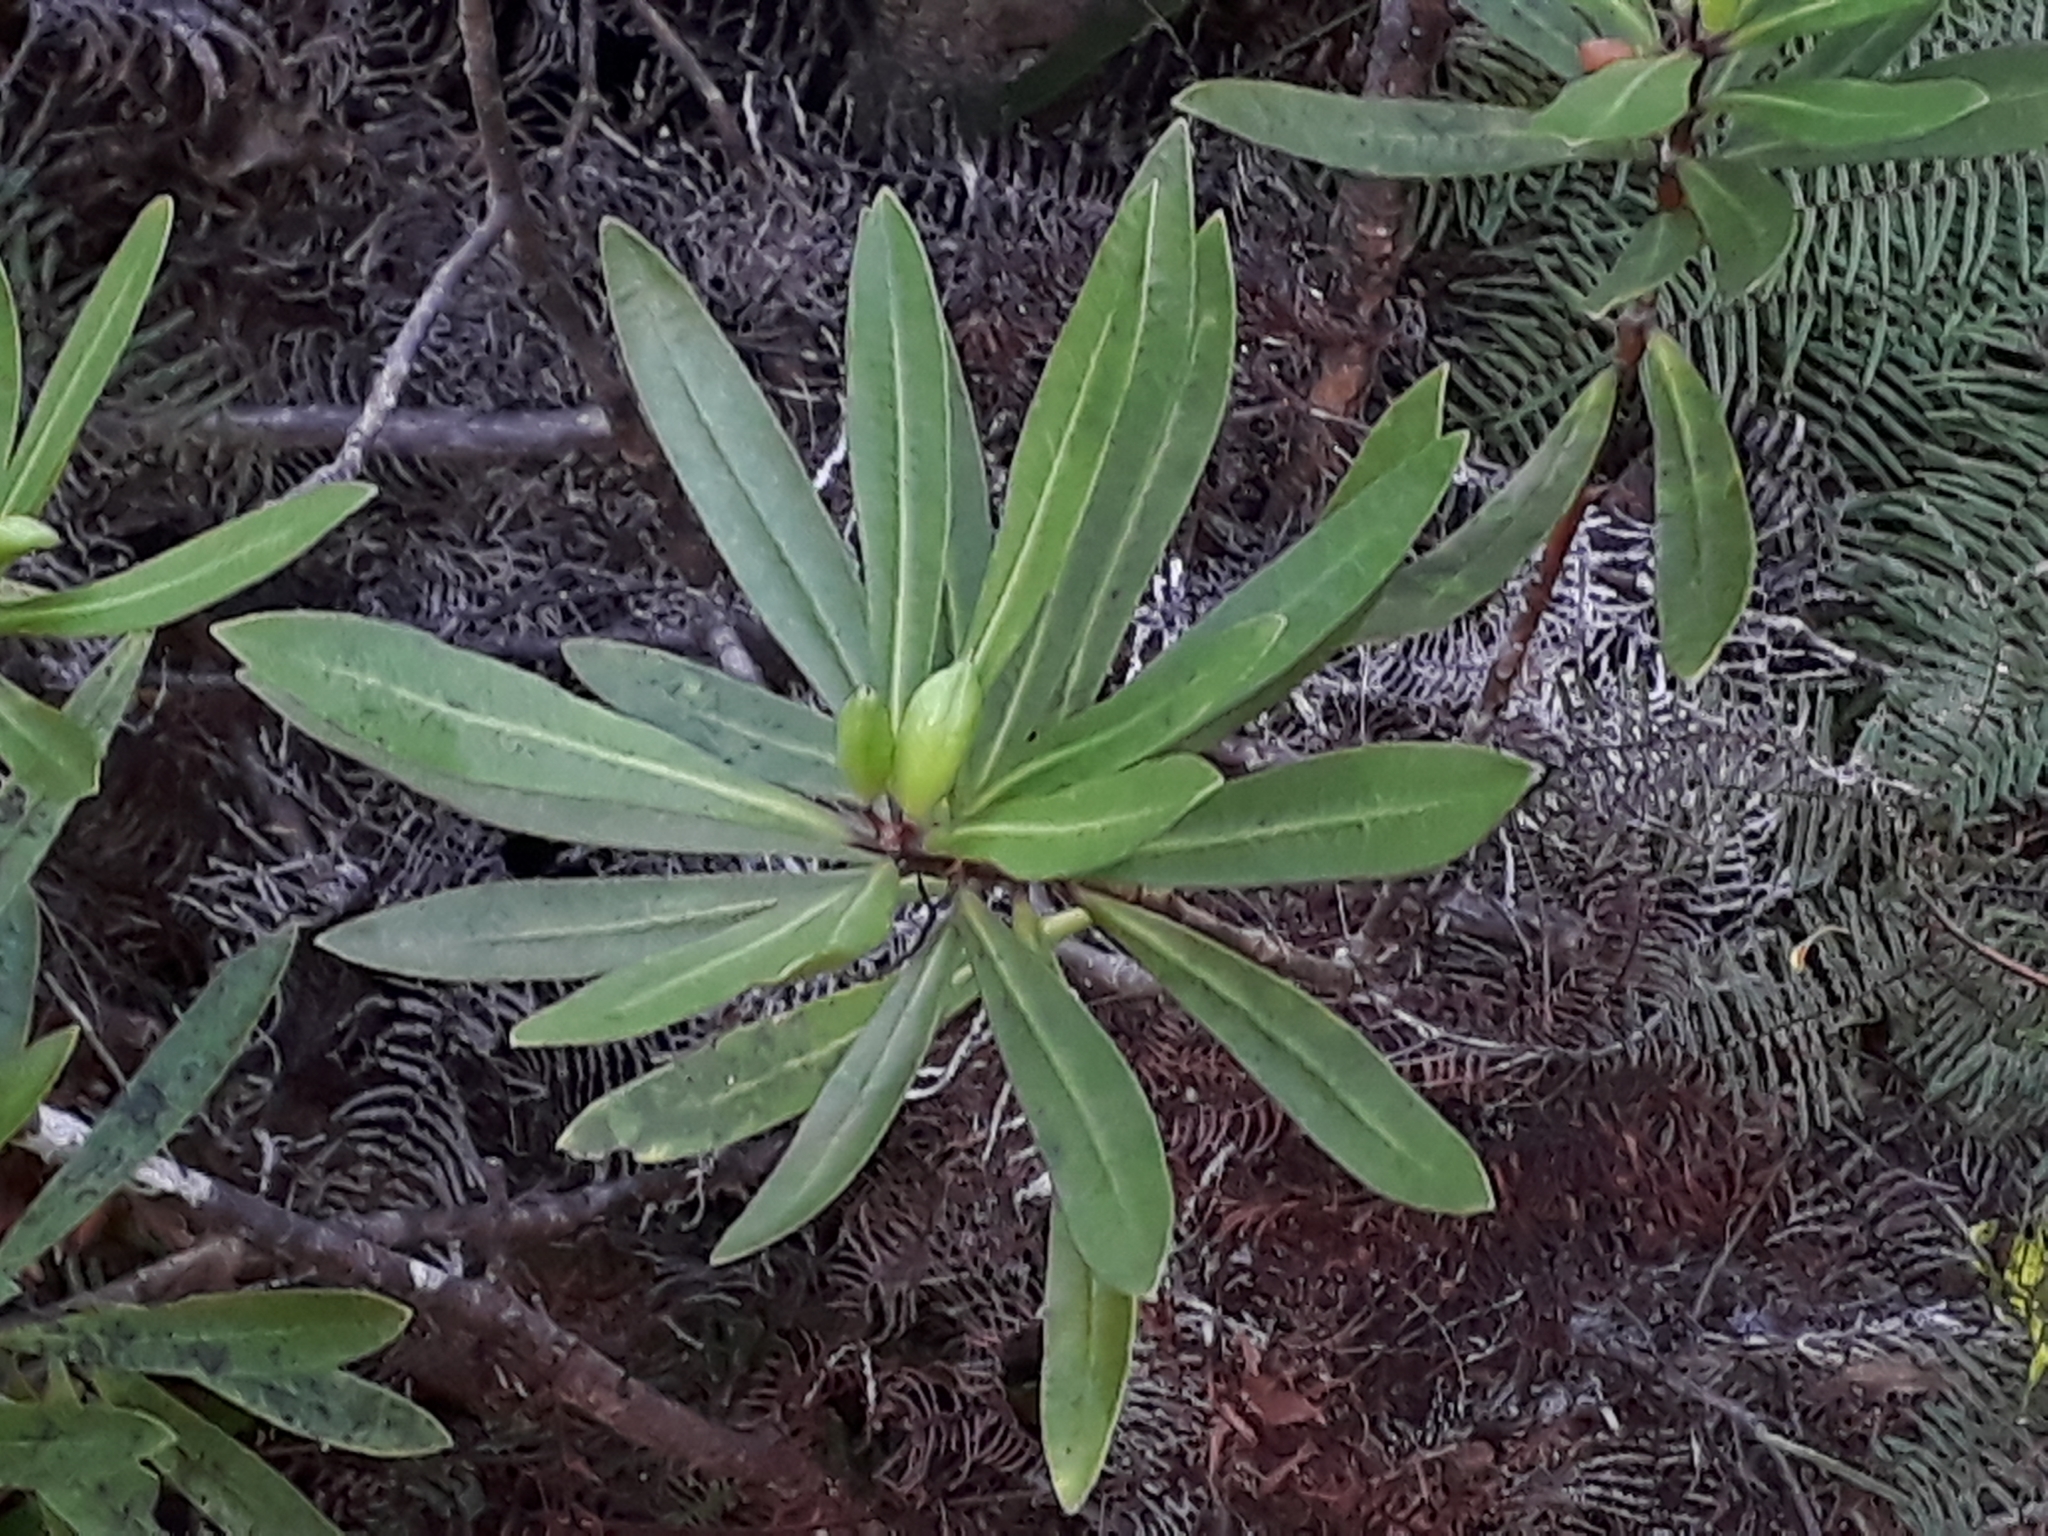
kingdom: Plantae
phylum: Tracheophyta
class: Magnoliopsida
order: Apiales
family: Pittosporaceae
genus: Pittosporum
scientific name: Pittosporum kirkii
